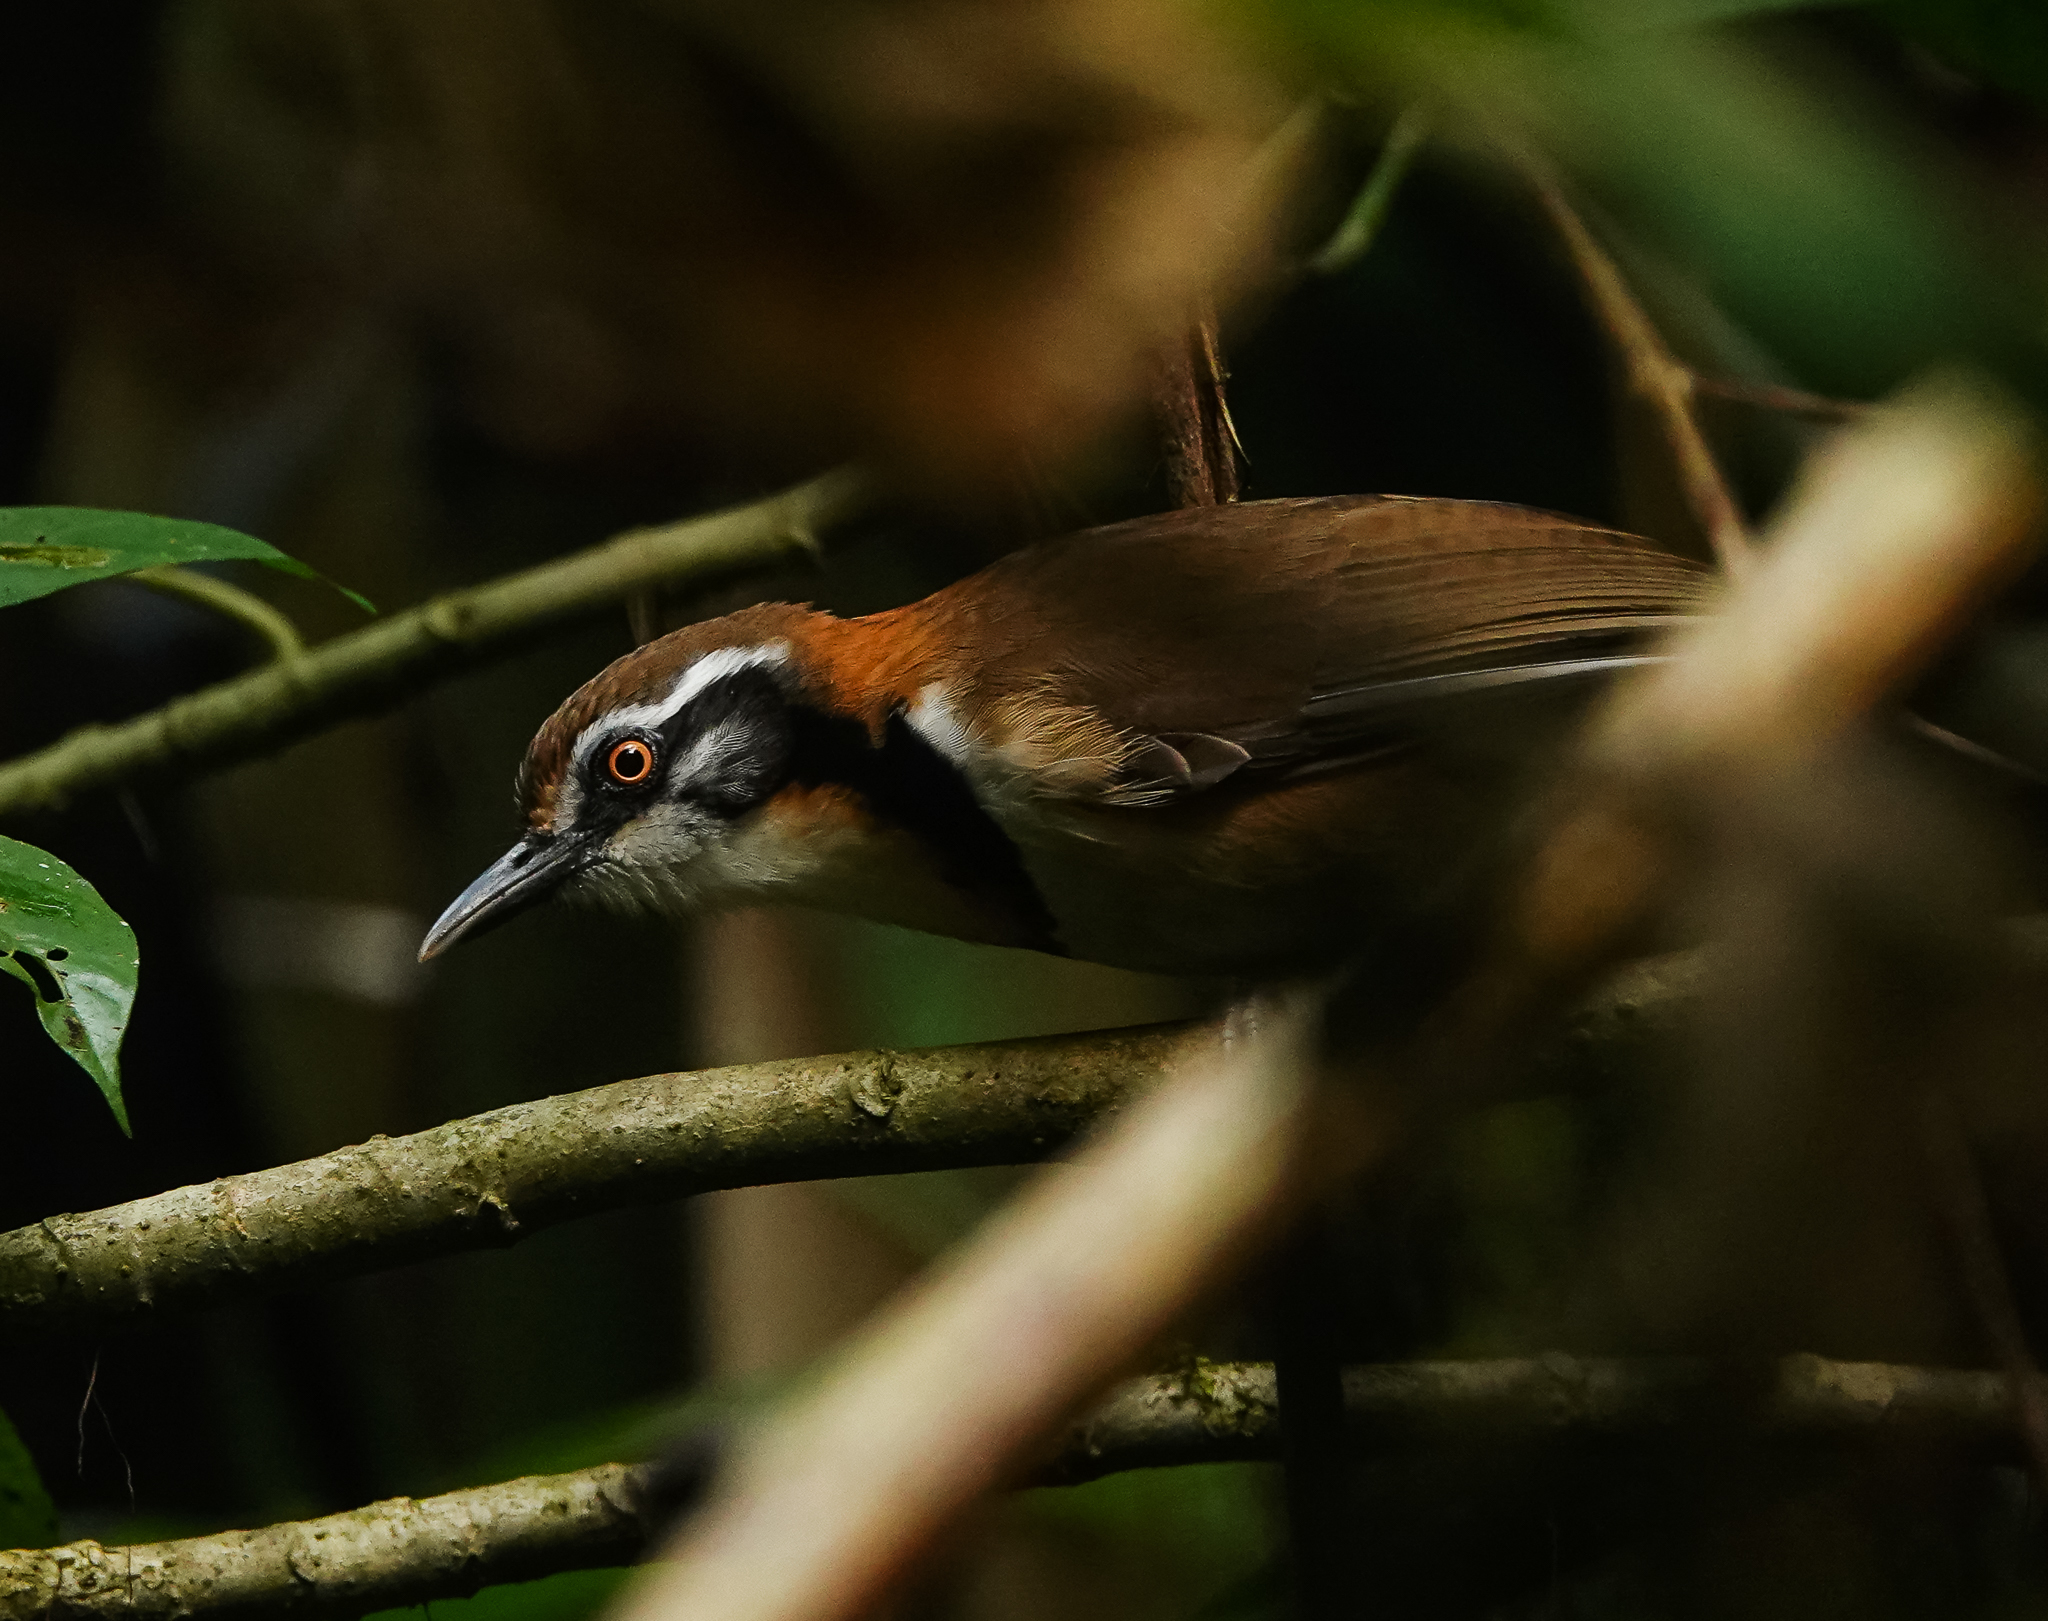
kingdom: Animalia
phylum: Chordata
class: Aves
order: Passeriformes
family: Leiothrichidae
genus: Garrulax
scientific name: Garrulax monileger
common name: Lesser necklaced laughingthrush
